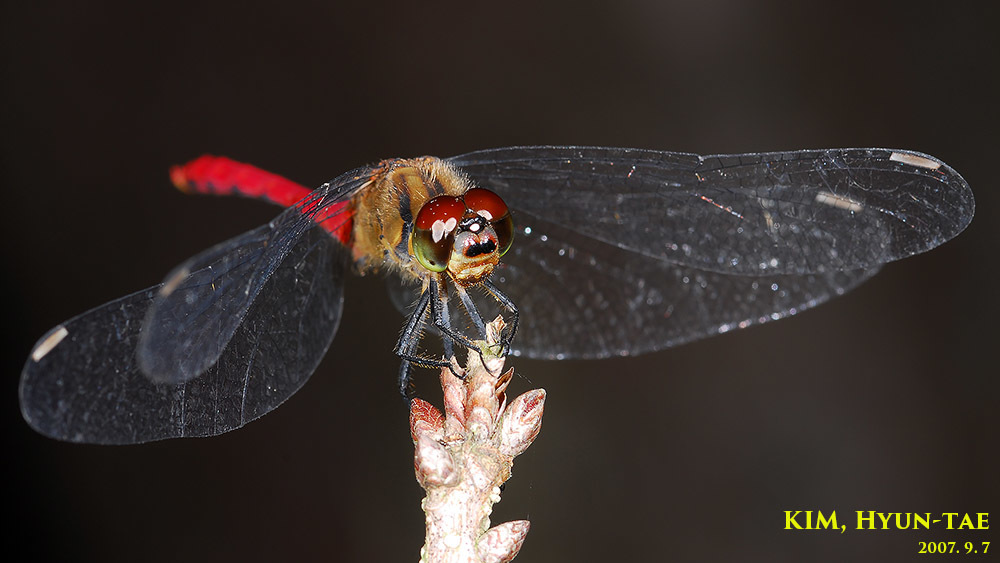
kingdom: Animalia
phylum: Arthropoda
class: Insecta
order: Odonata
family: Libellulidae
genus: Sympetrum
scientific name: Sympetrum eroticum
